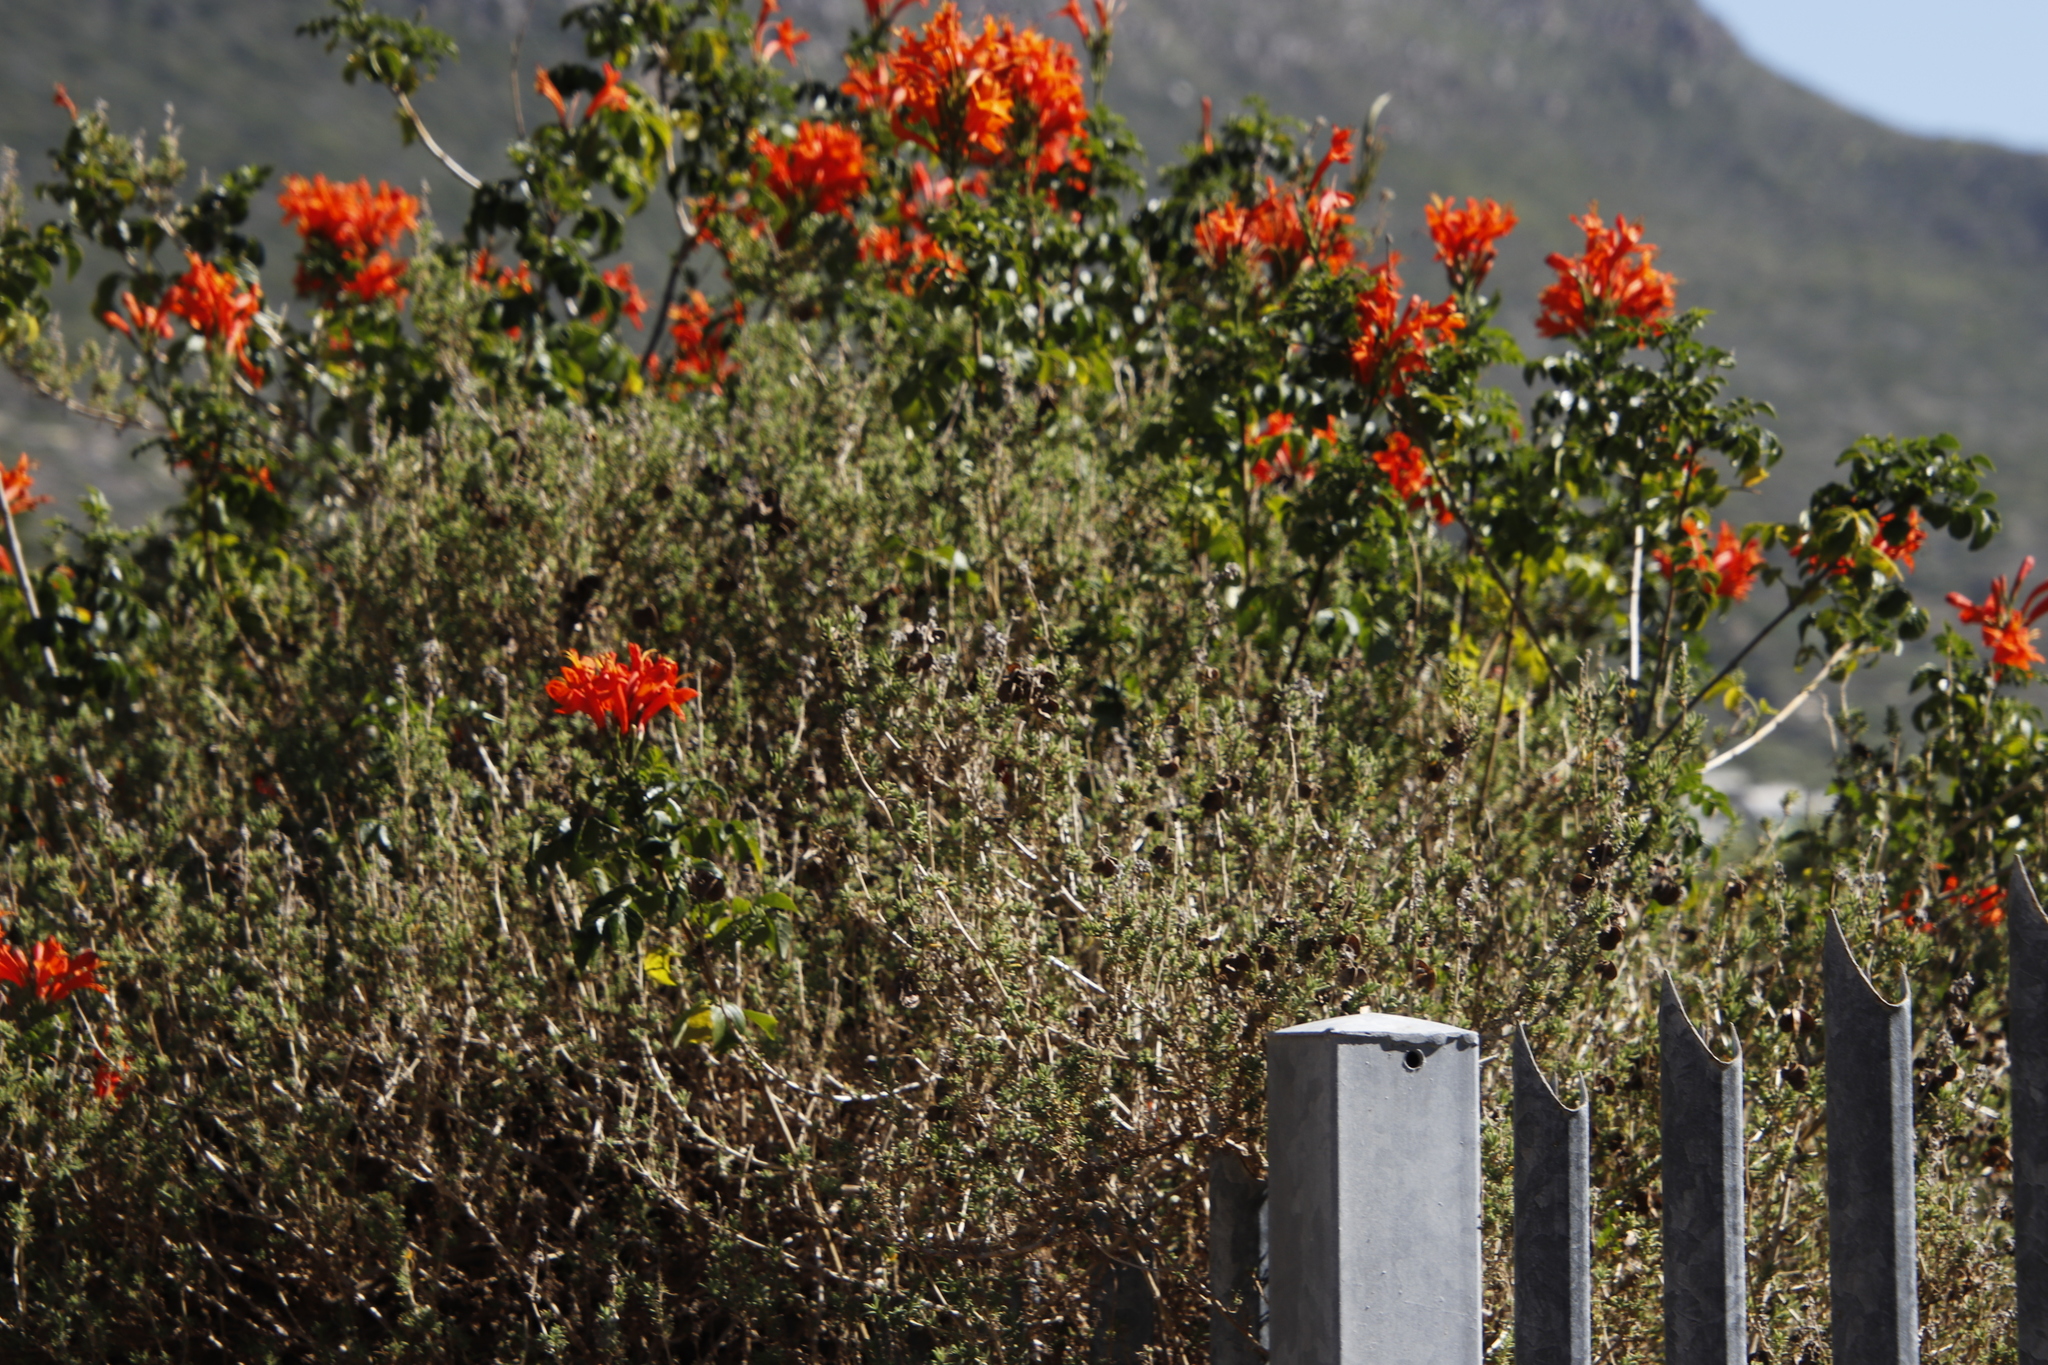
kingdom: Plantae
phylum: Tracheophyta
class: Magnoliopsida
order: Lamiales
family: Bignoniaceae
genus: Tecomaria
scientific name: Tecomaria capensis
